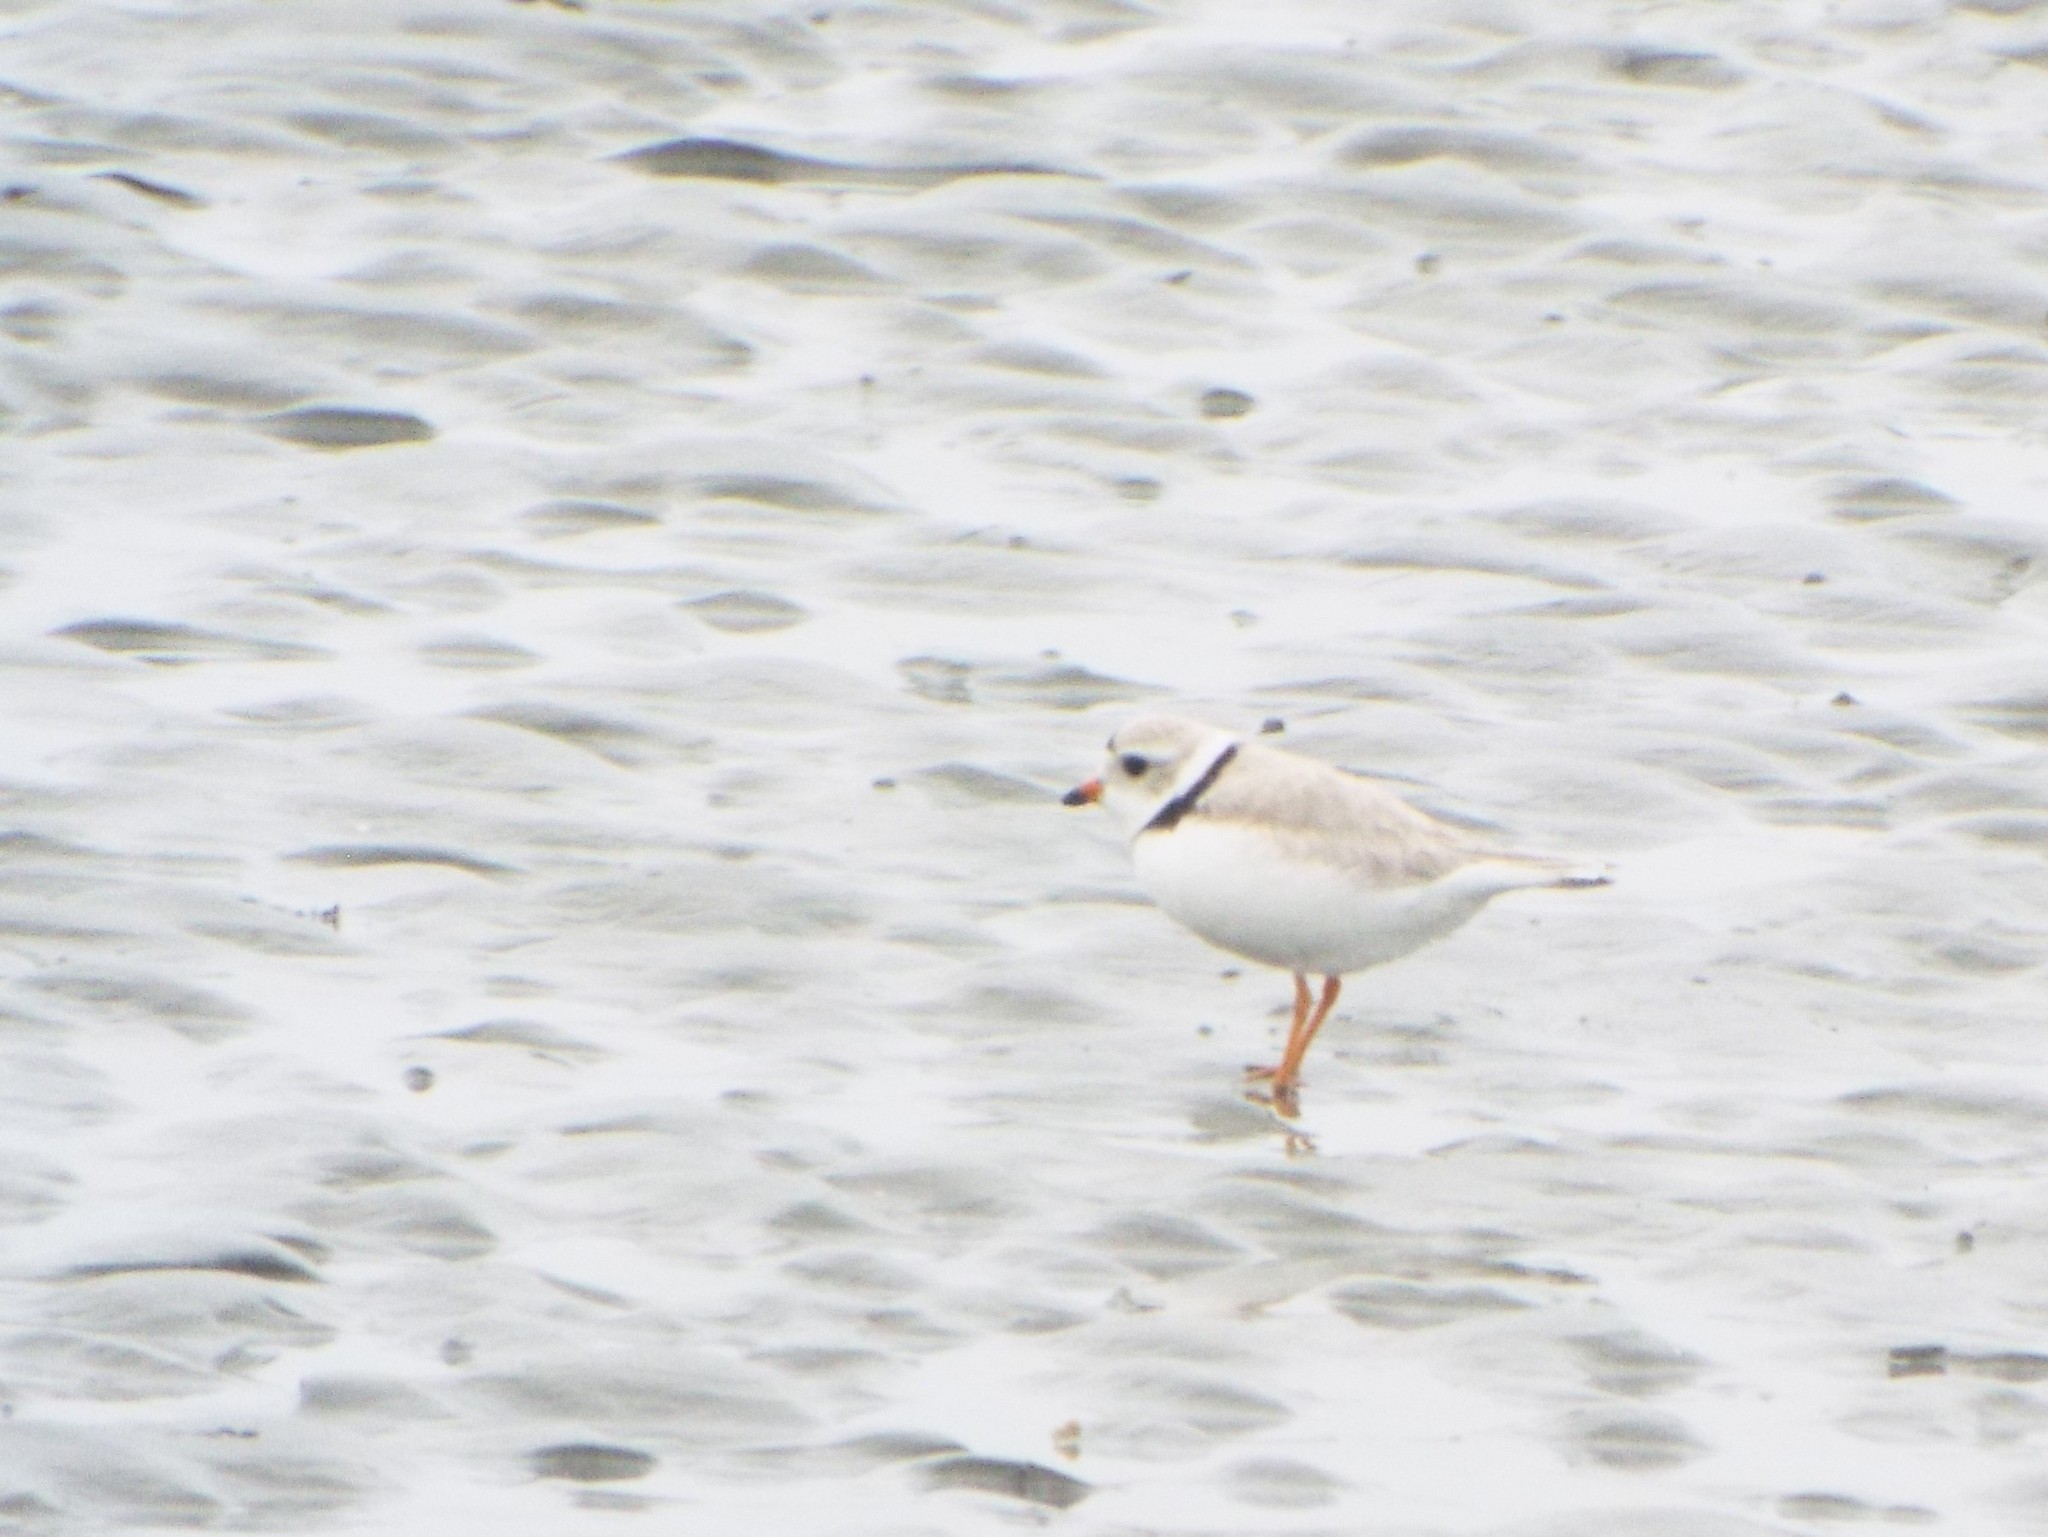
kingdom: Animalia
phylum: Chordata
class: Aves
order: Charadriiformes
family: Charadriidae
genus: Charadrius
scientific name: Charadrius melodus
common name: Piping plover
